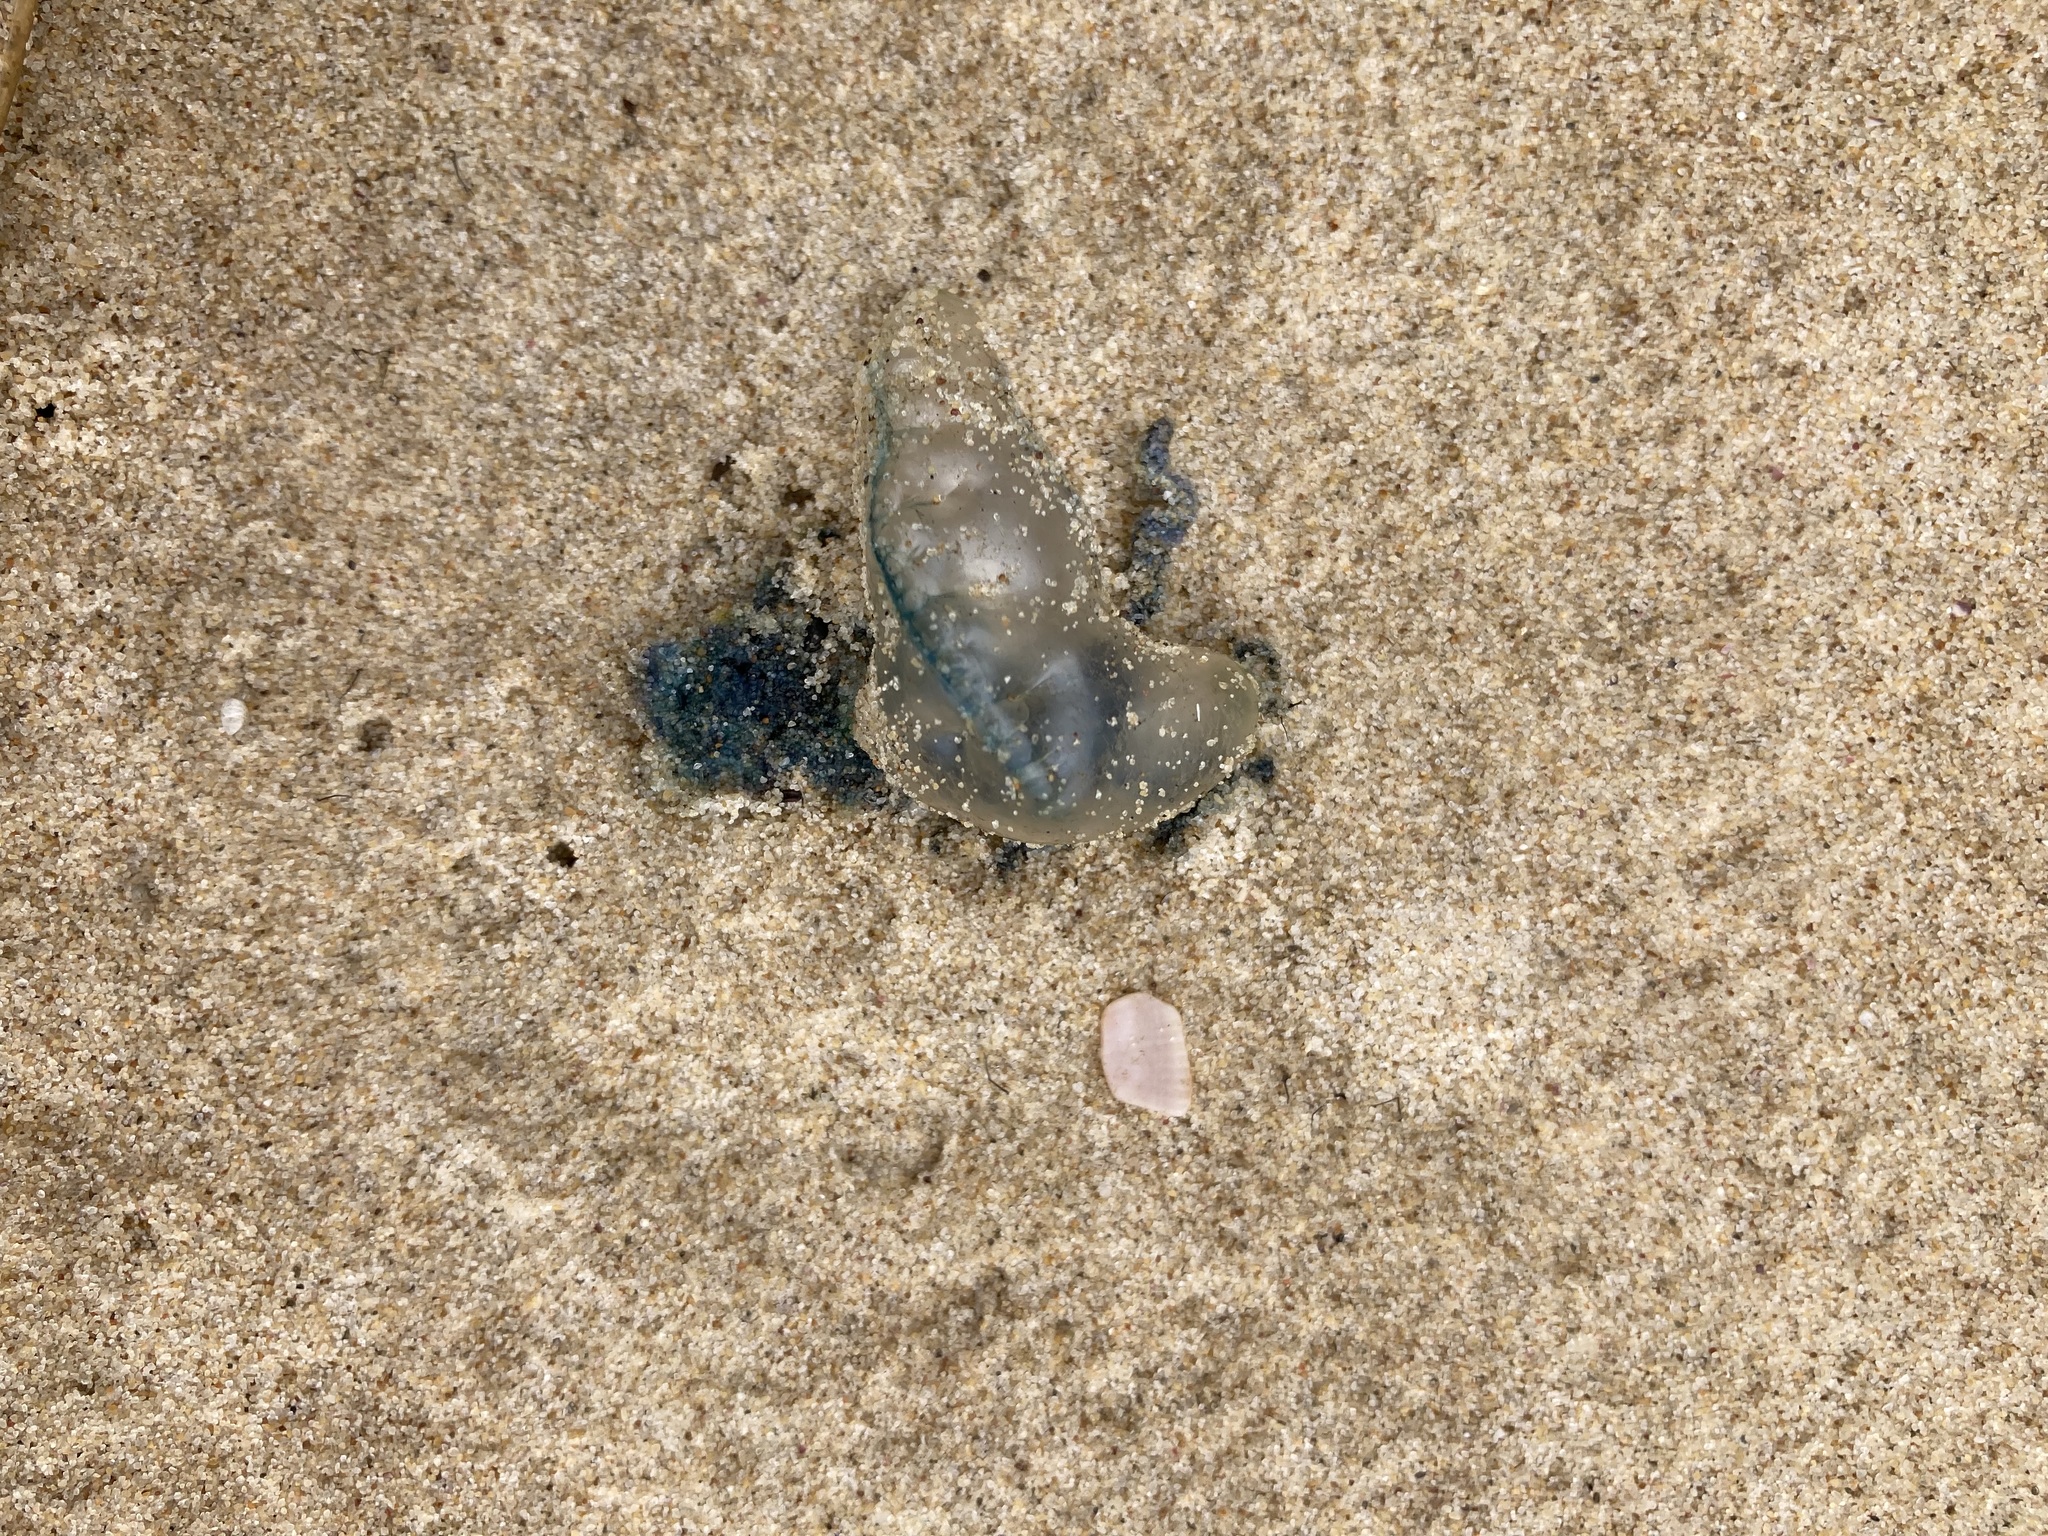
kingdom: Animalia
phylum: Cnidaria
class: Hydrozoa
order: Siphonophorae
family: Physaliidae
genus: Physalia
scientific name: Physalia physalis
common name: Portuguese man-of-war
